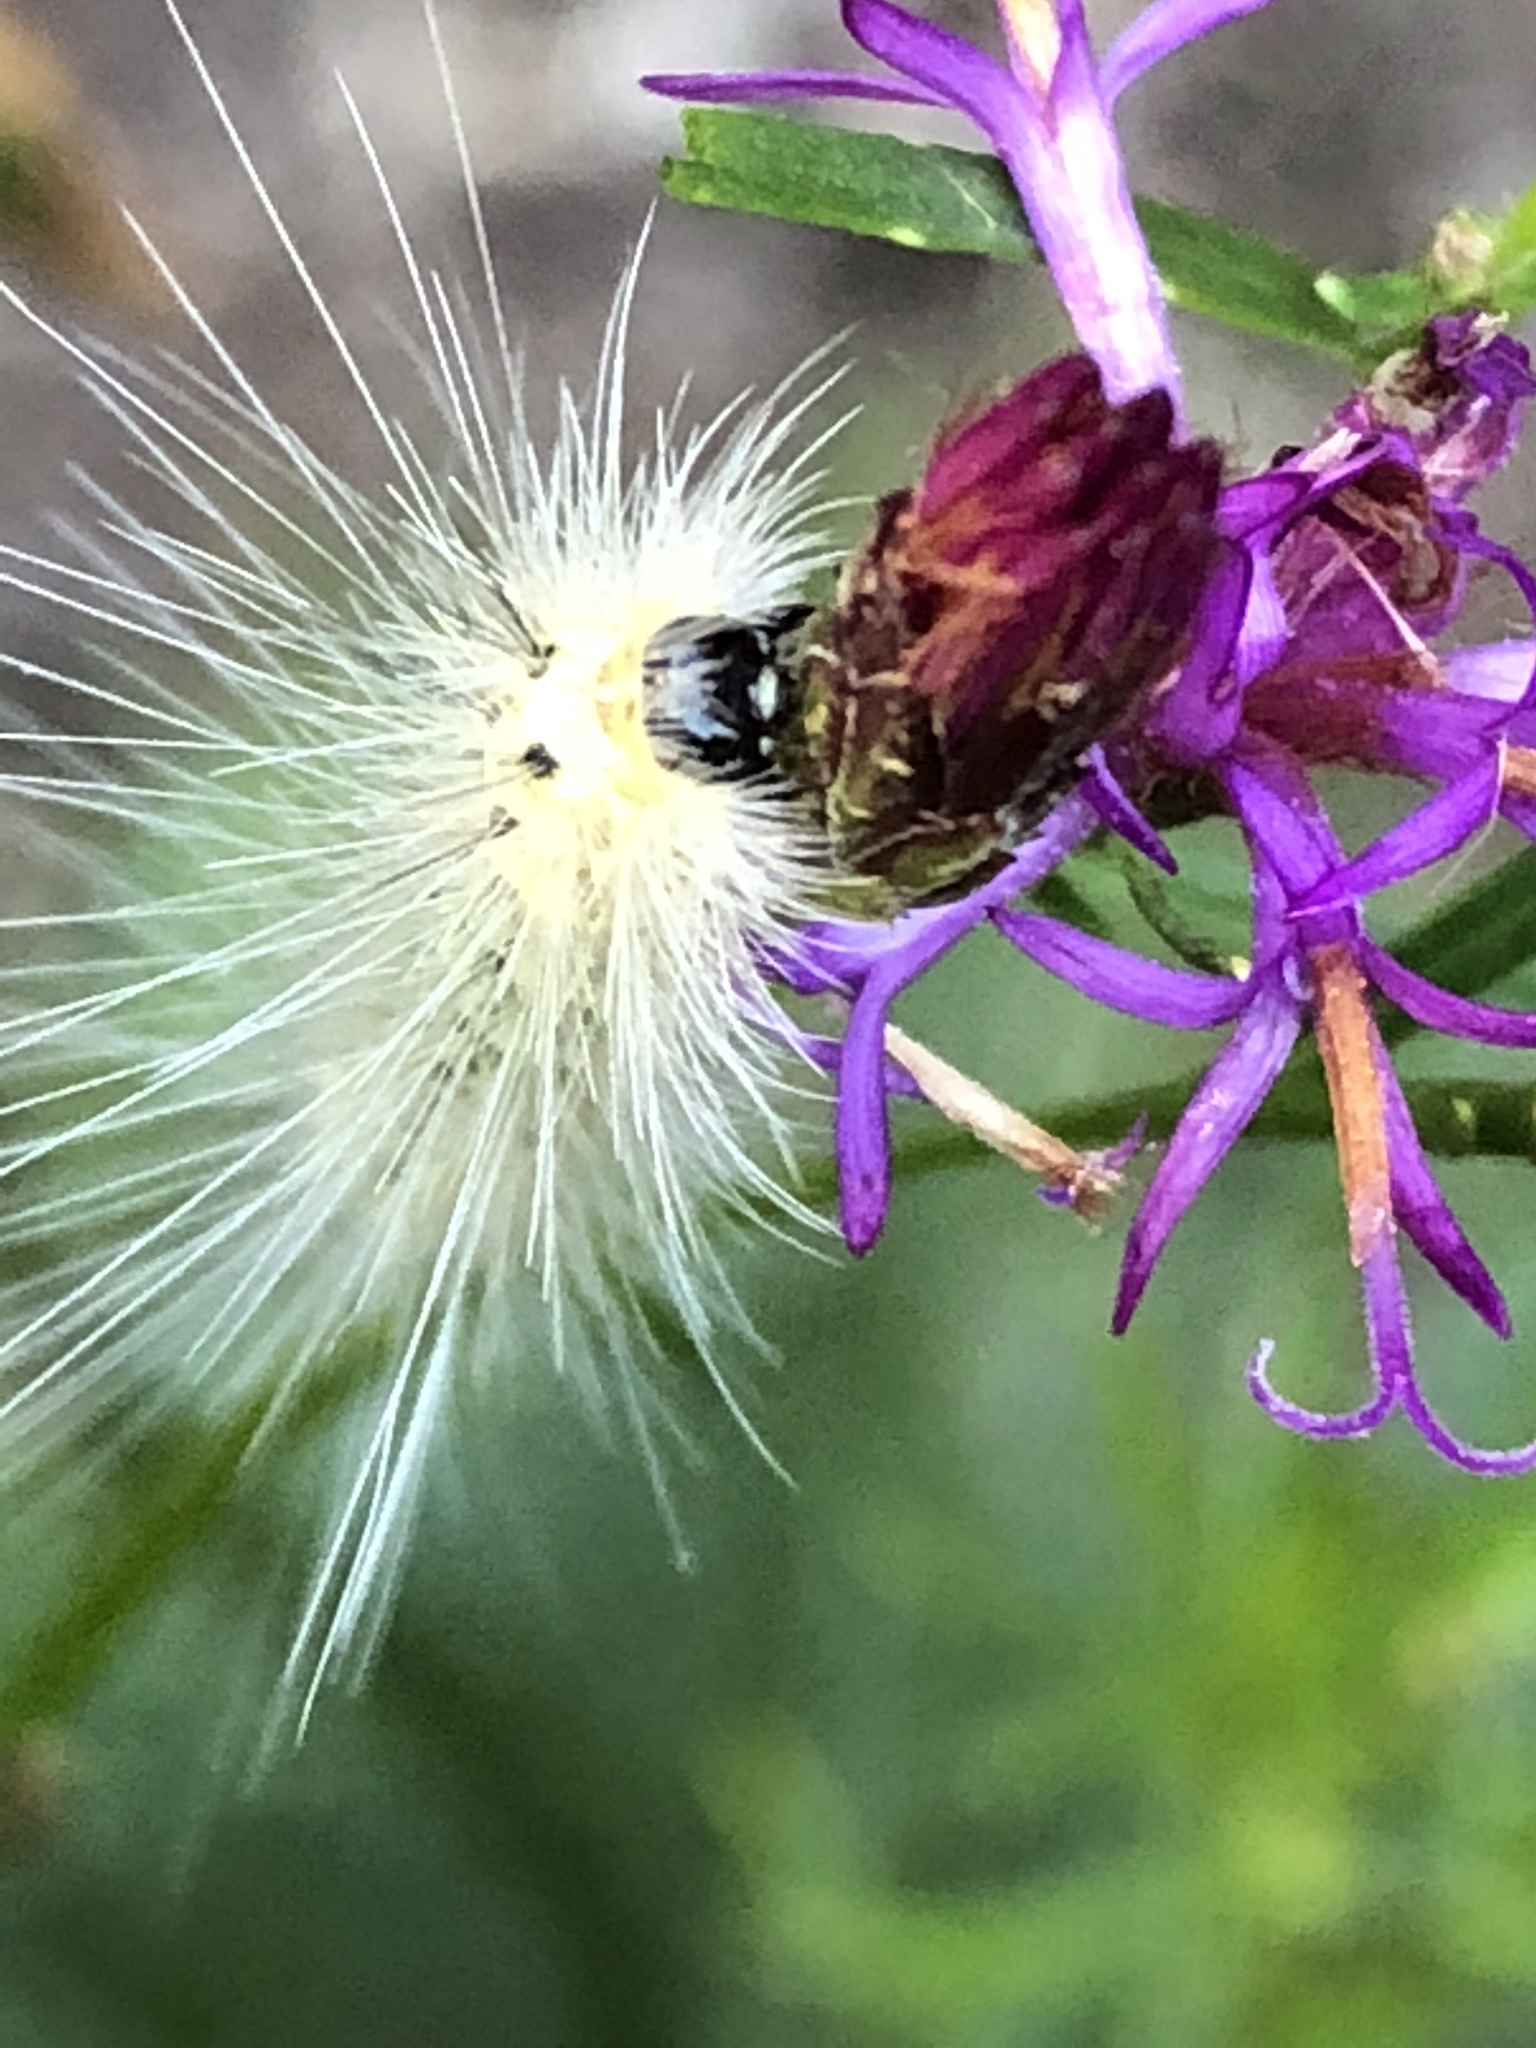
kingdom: Animalia
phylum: Arthropoda
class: Insecta
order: Lepidoptera
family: Erebidae
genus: Hyphantria
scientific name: Hyphantria cunea
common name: American white moth
